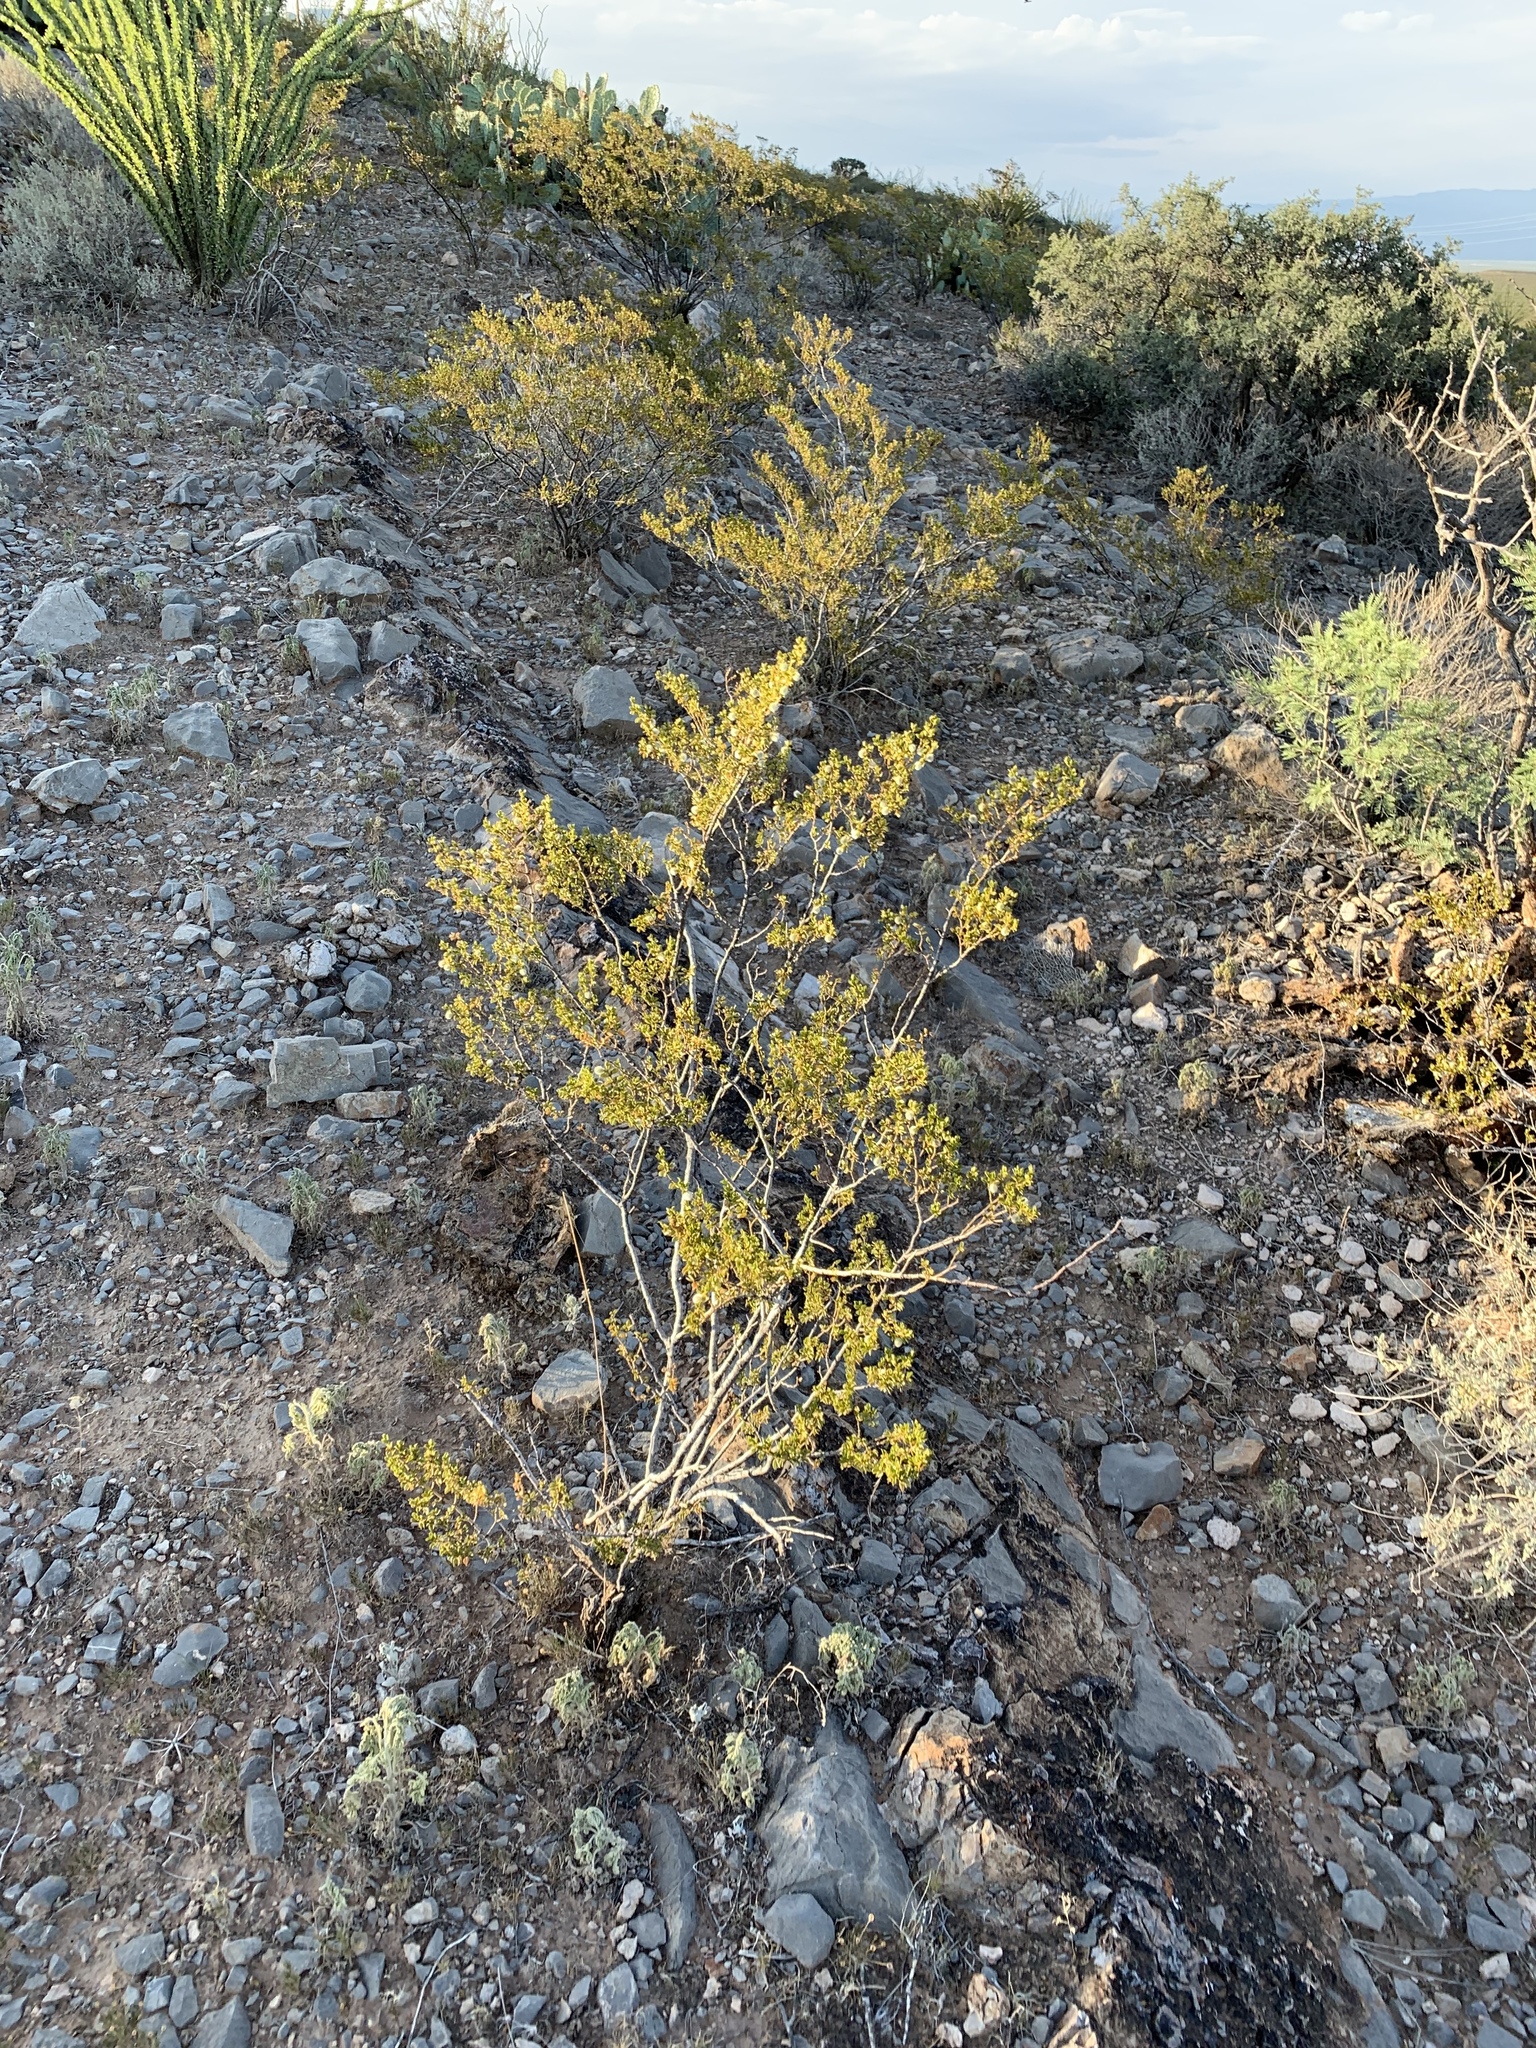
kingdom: Plantae
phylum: Tracheophyta
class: Magnoliopsida
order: Zygophyllales
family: Zygophyllaceae
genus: Larrea
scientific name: Larrea tridentata
